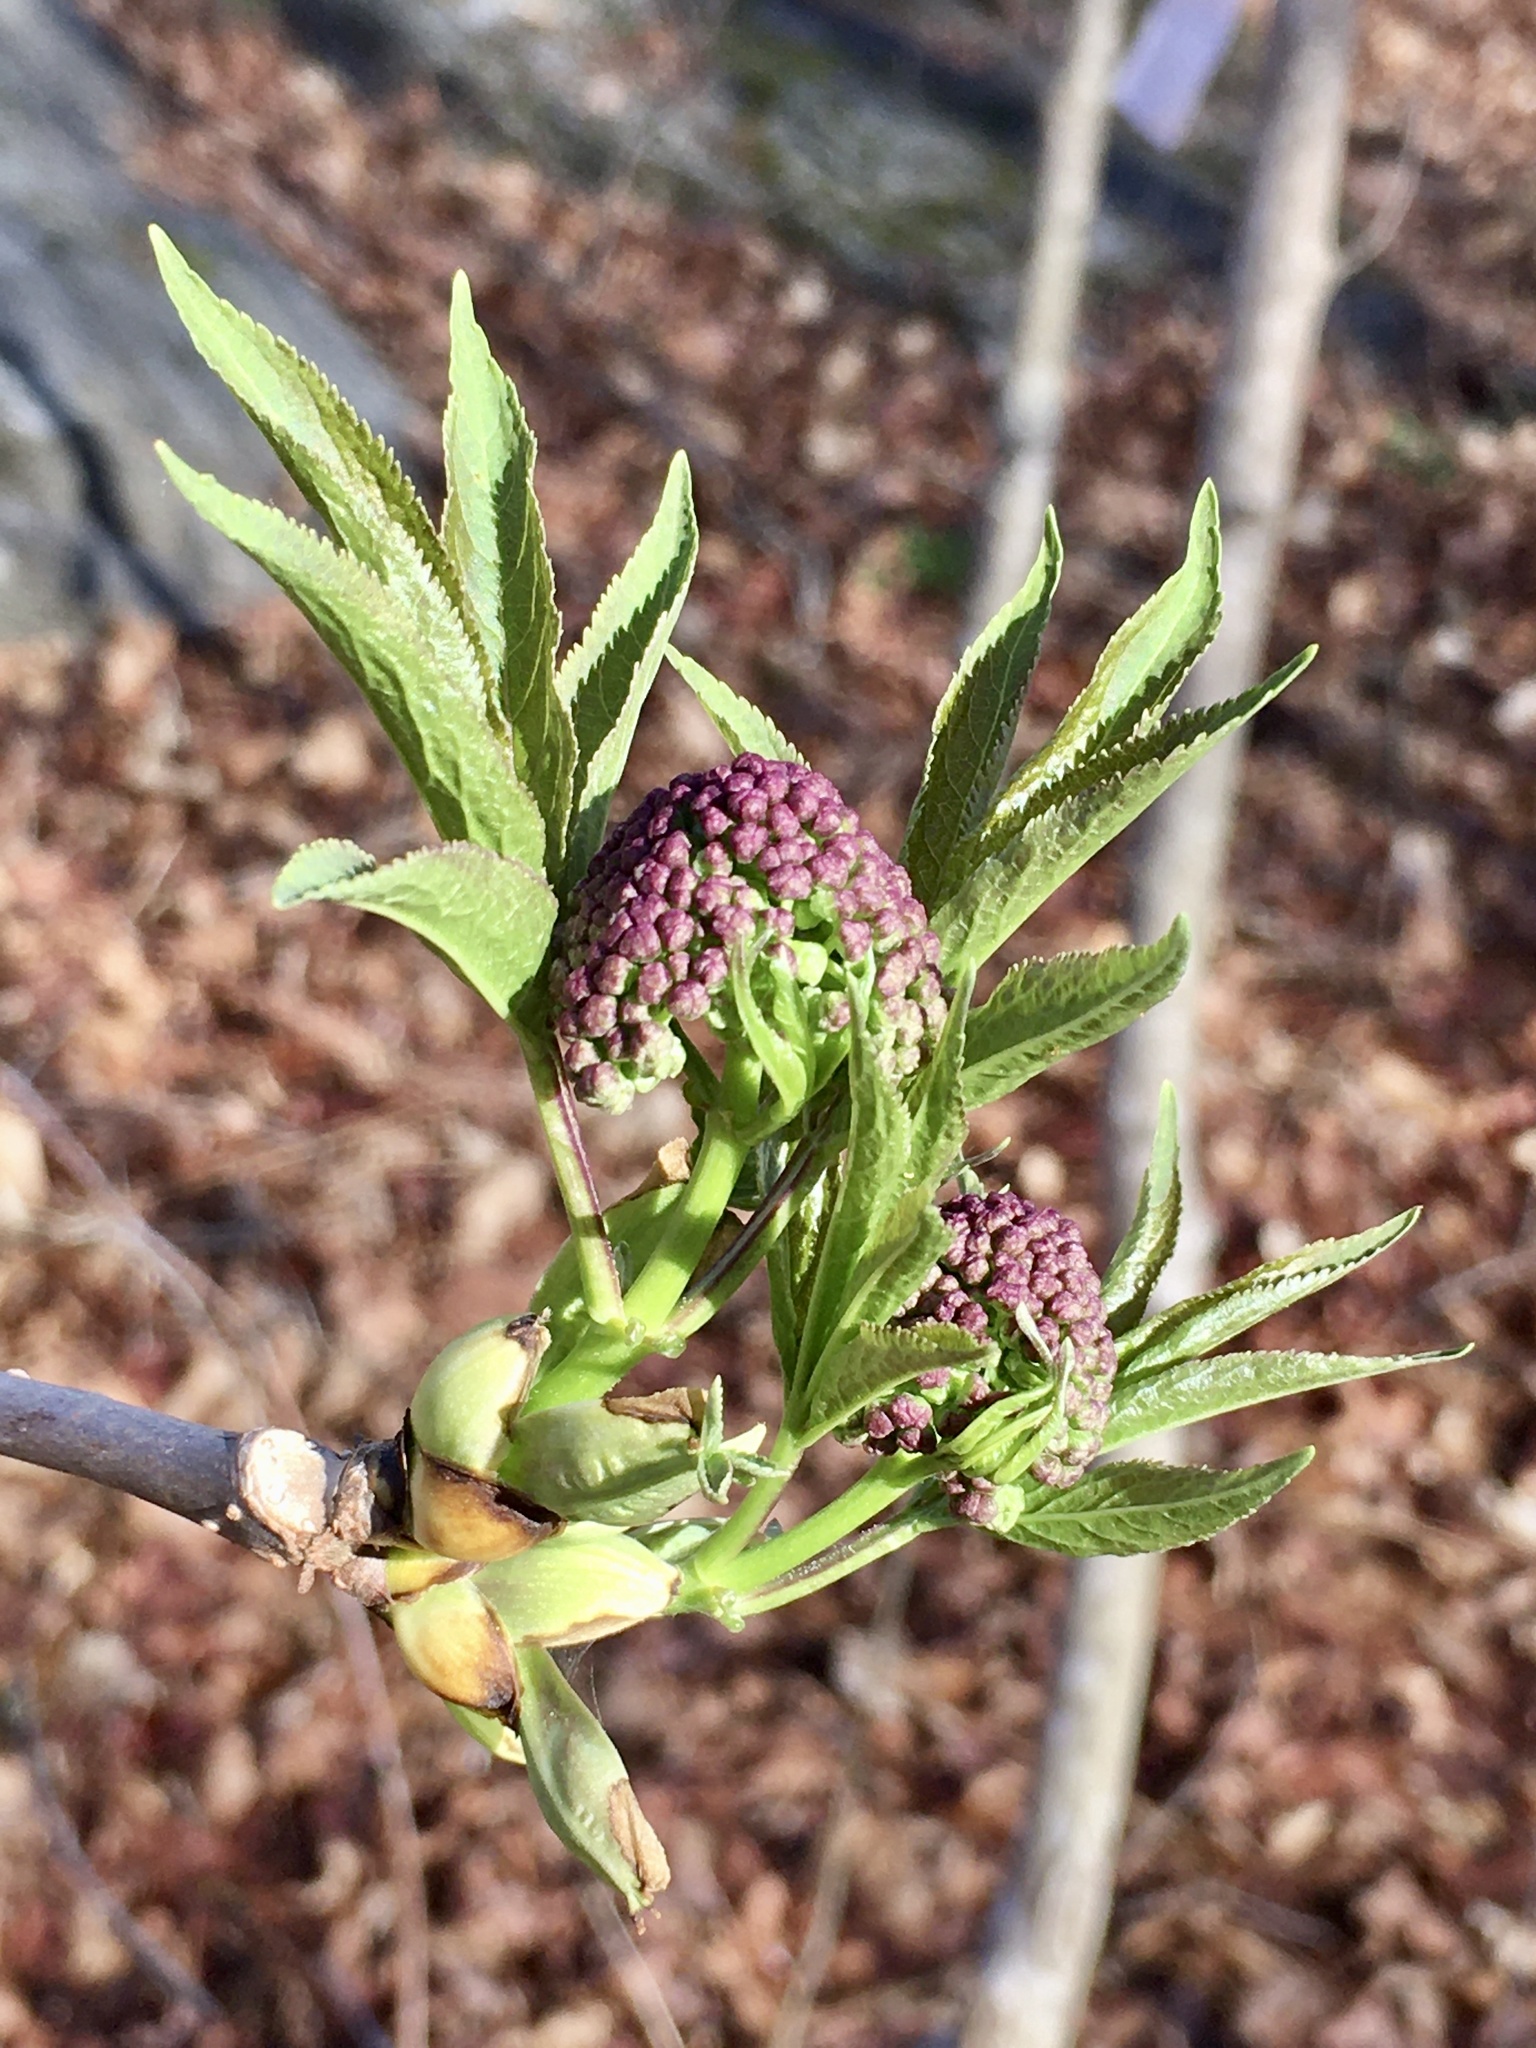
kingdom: Plantae
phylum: Tracheophyta
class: Magnoliopsida
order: Dipsacales
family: Viburnaceae
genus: Sambucus
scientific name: Sambucus racemosa
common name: Red-berried elder
